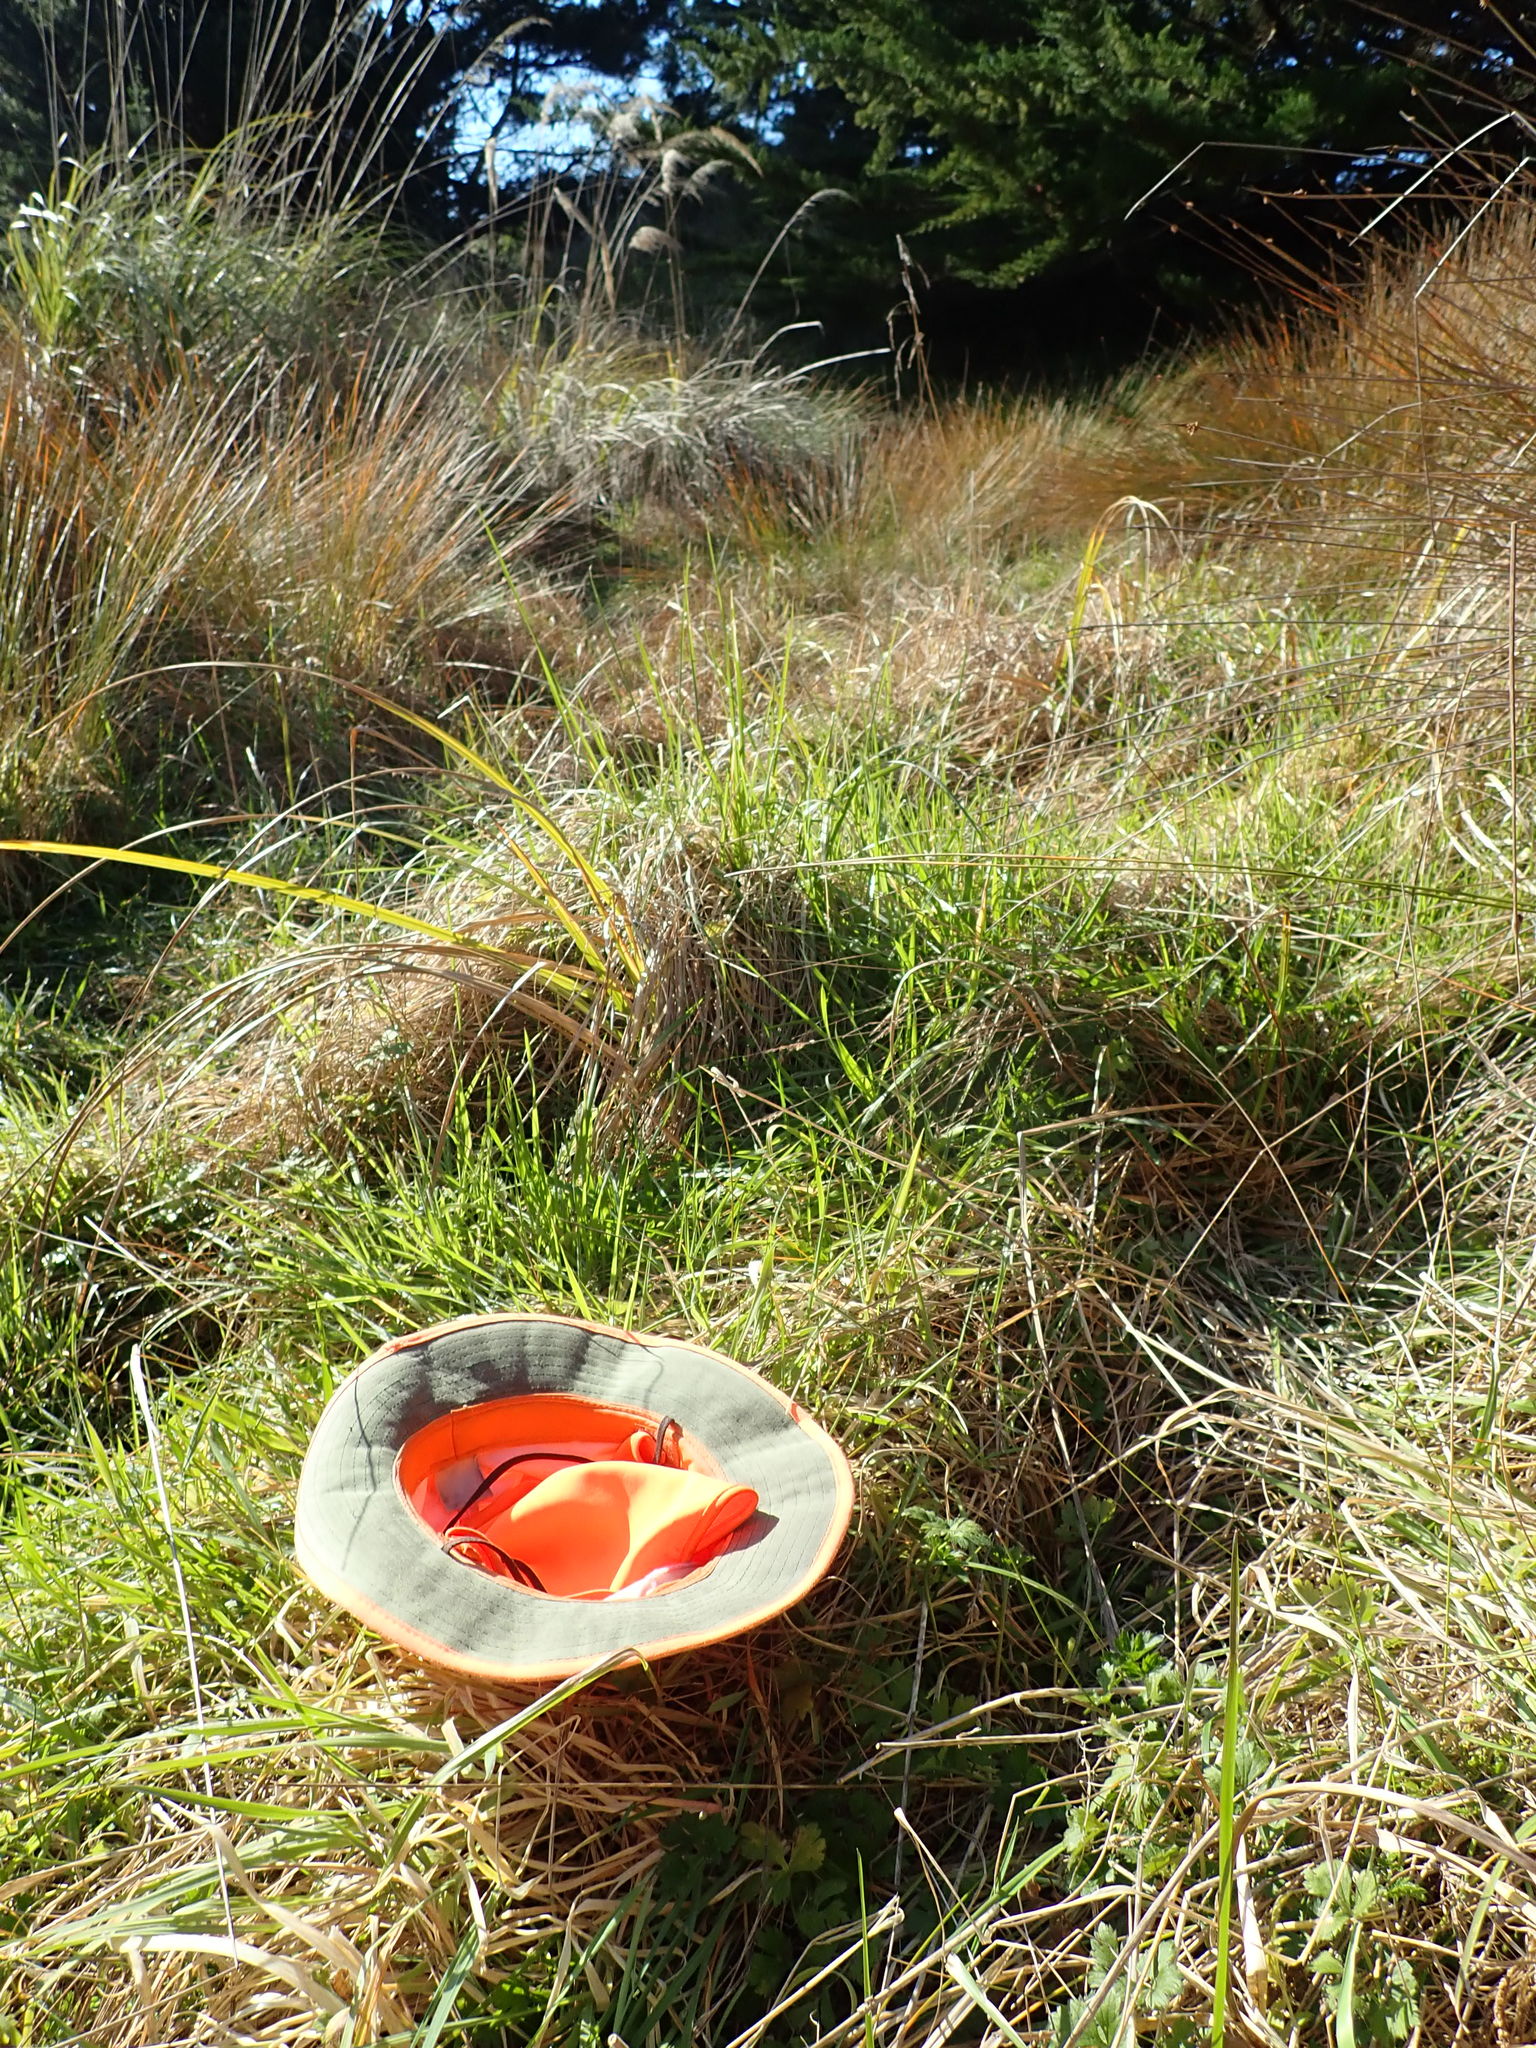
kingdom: Plantae
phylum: Tracheophyta
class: Magnoliopsida
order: Ranunculales
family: Ranunculaceae
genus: Ranunculus
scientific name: Ranunculus repens
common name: Creeping buttercup
